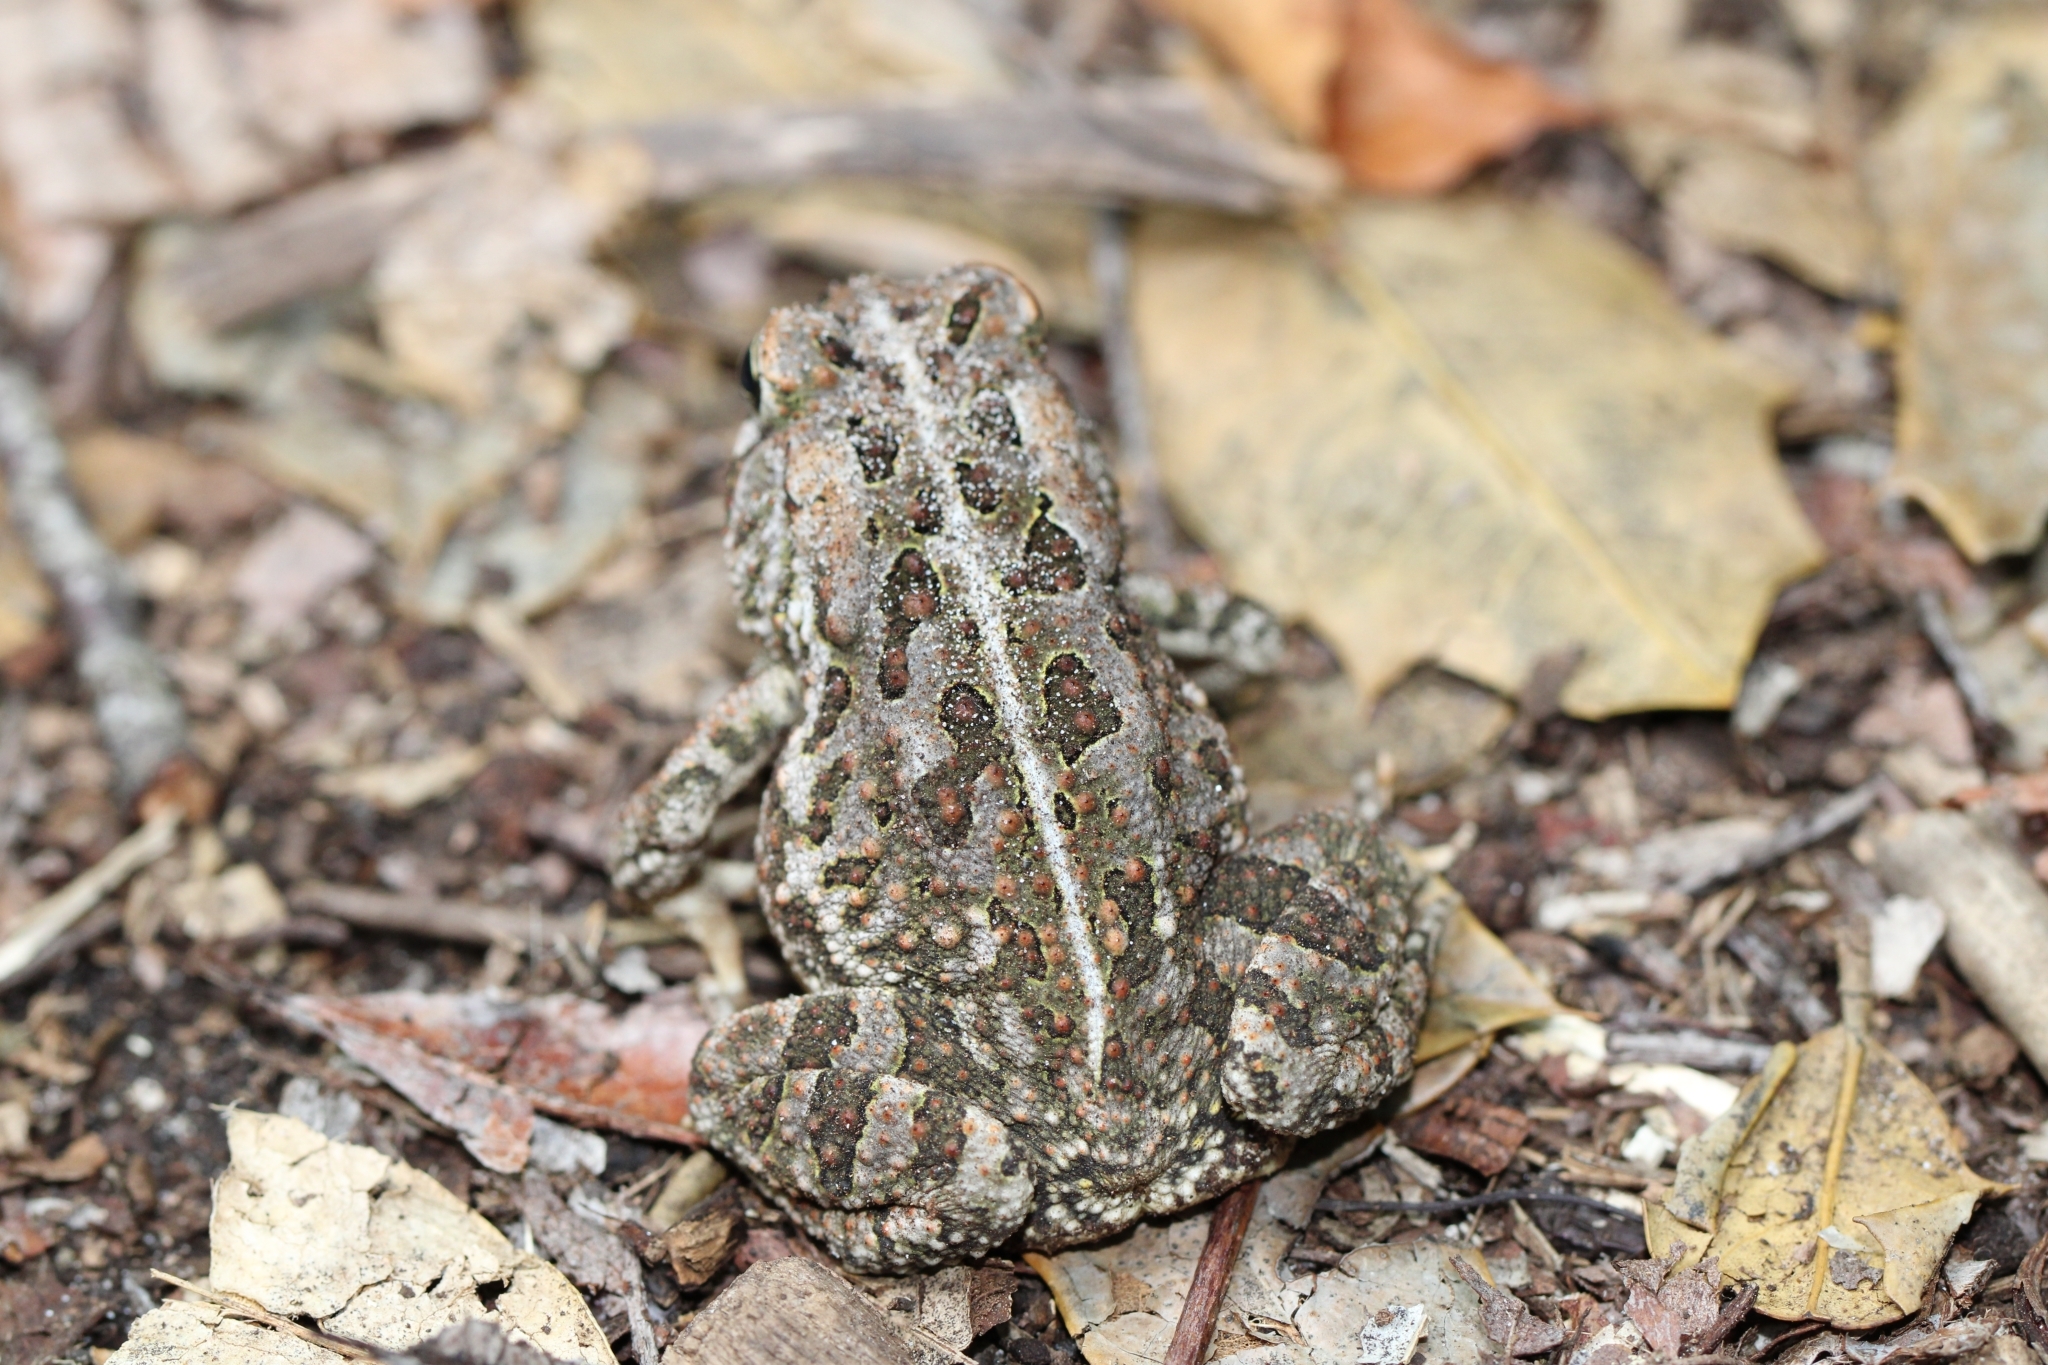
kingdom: Animalia
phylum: Chordata
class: Amphibia
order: Anura
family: Bufonidae
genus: Anaxyrus
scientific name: Anaxyrus fowleri
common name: Fowler's toad
